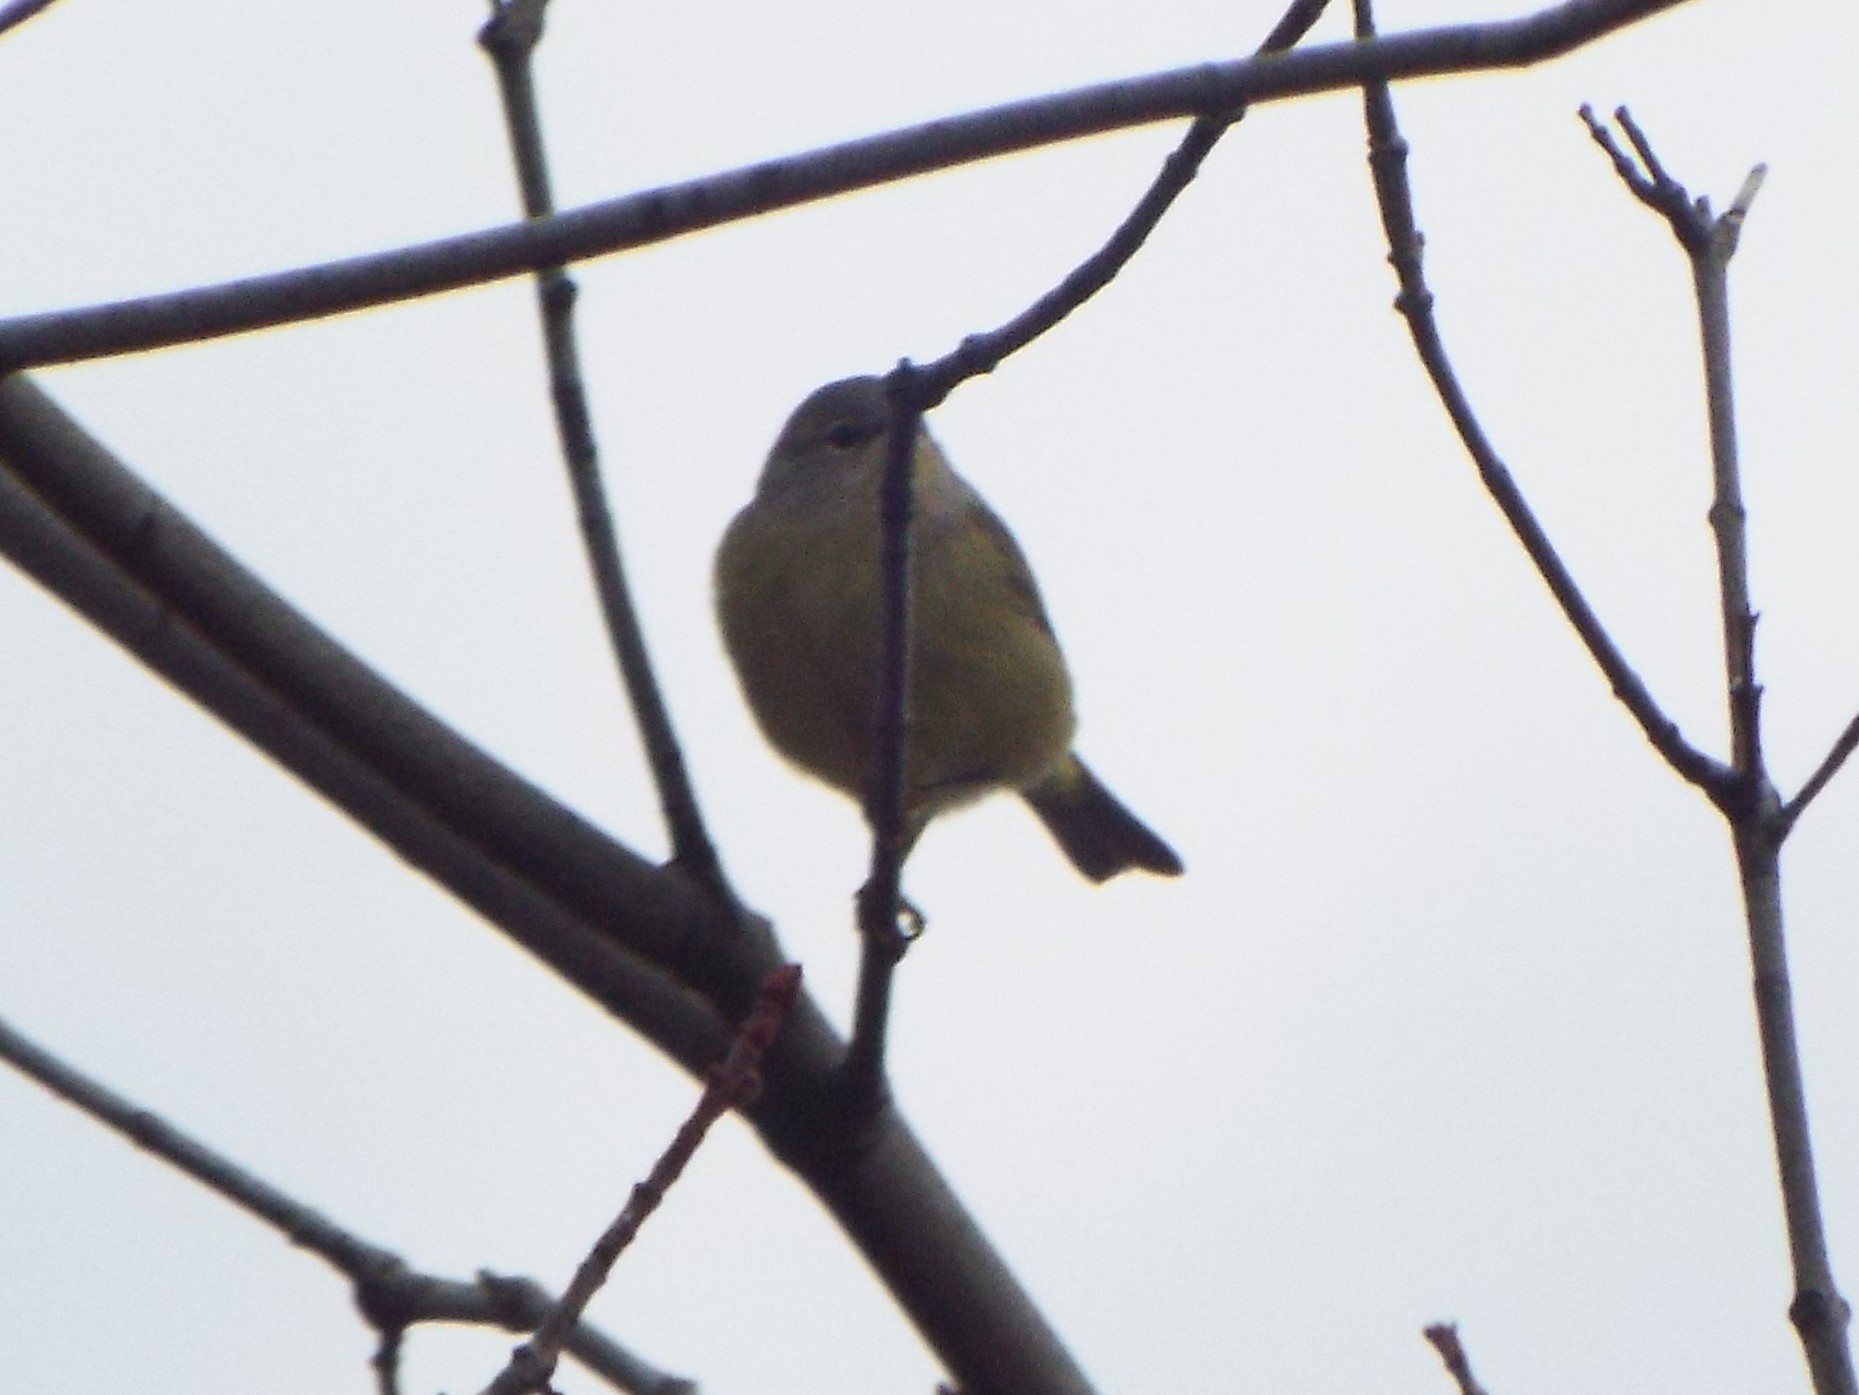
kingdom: Animalia
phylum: Chordata
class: Aves
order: Passeriformes
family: Parulidae
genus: Leiothlypis
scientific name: Leiothlypis celata
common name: Orange-crowned warbler
